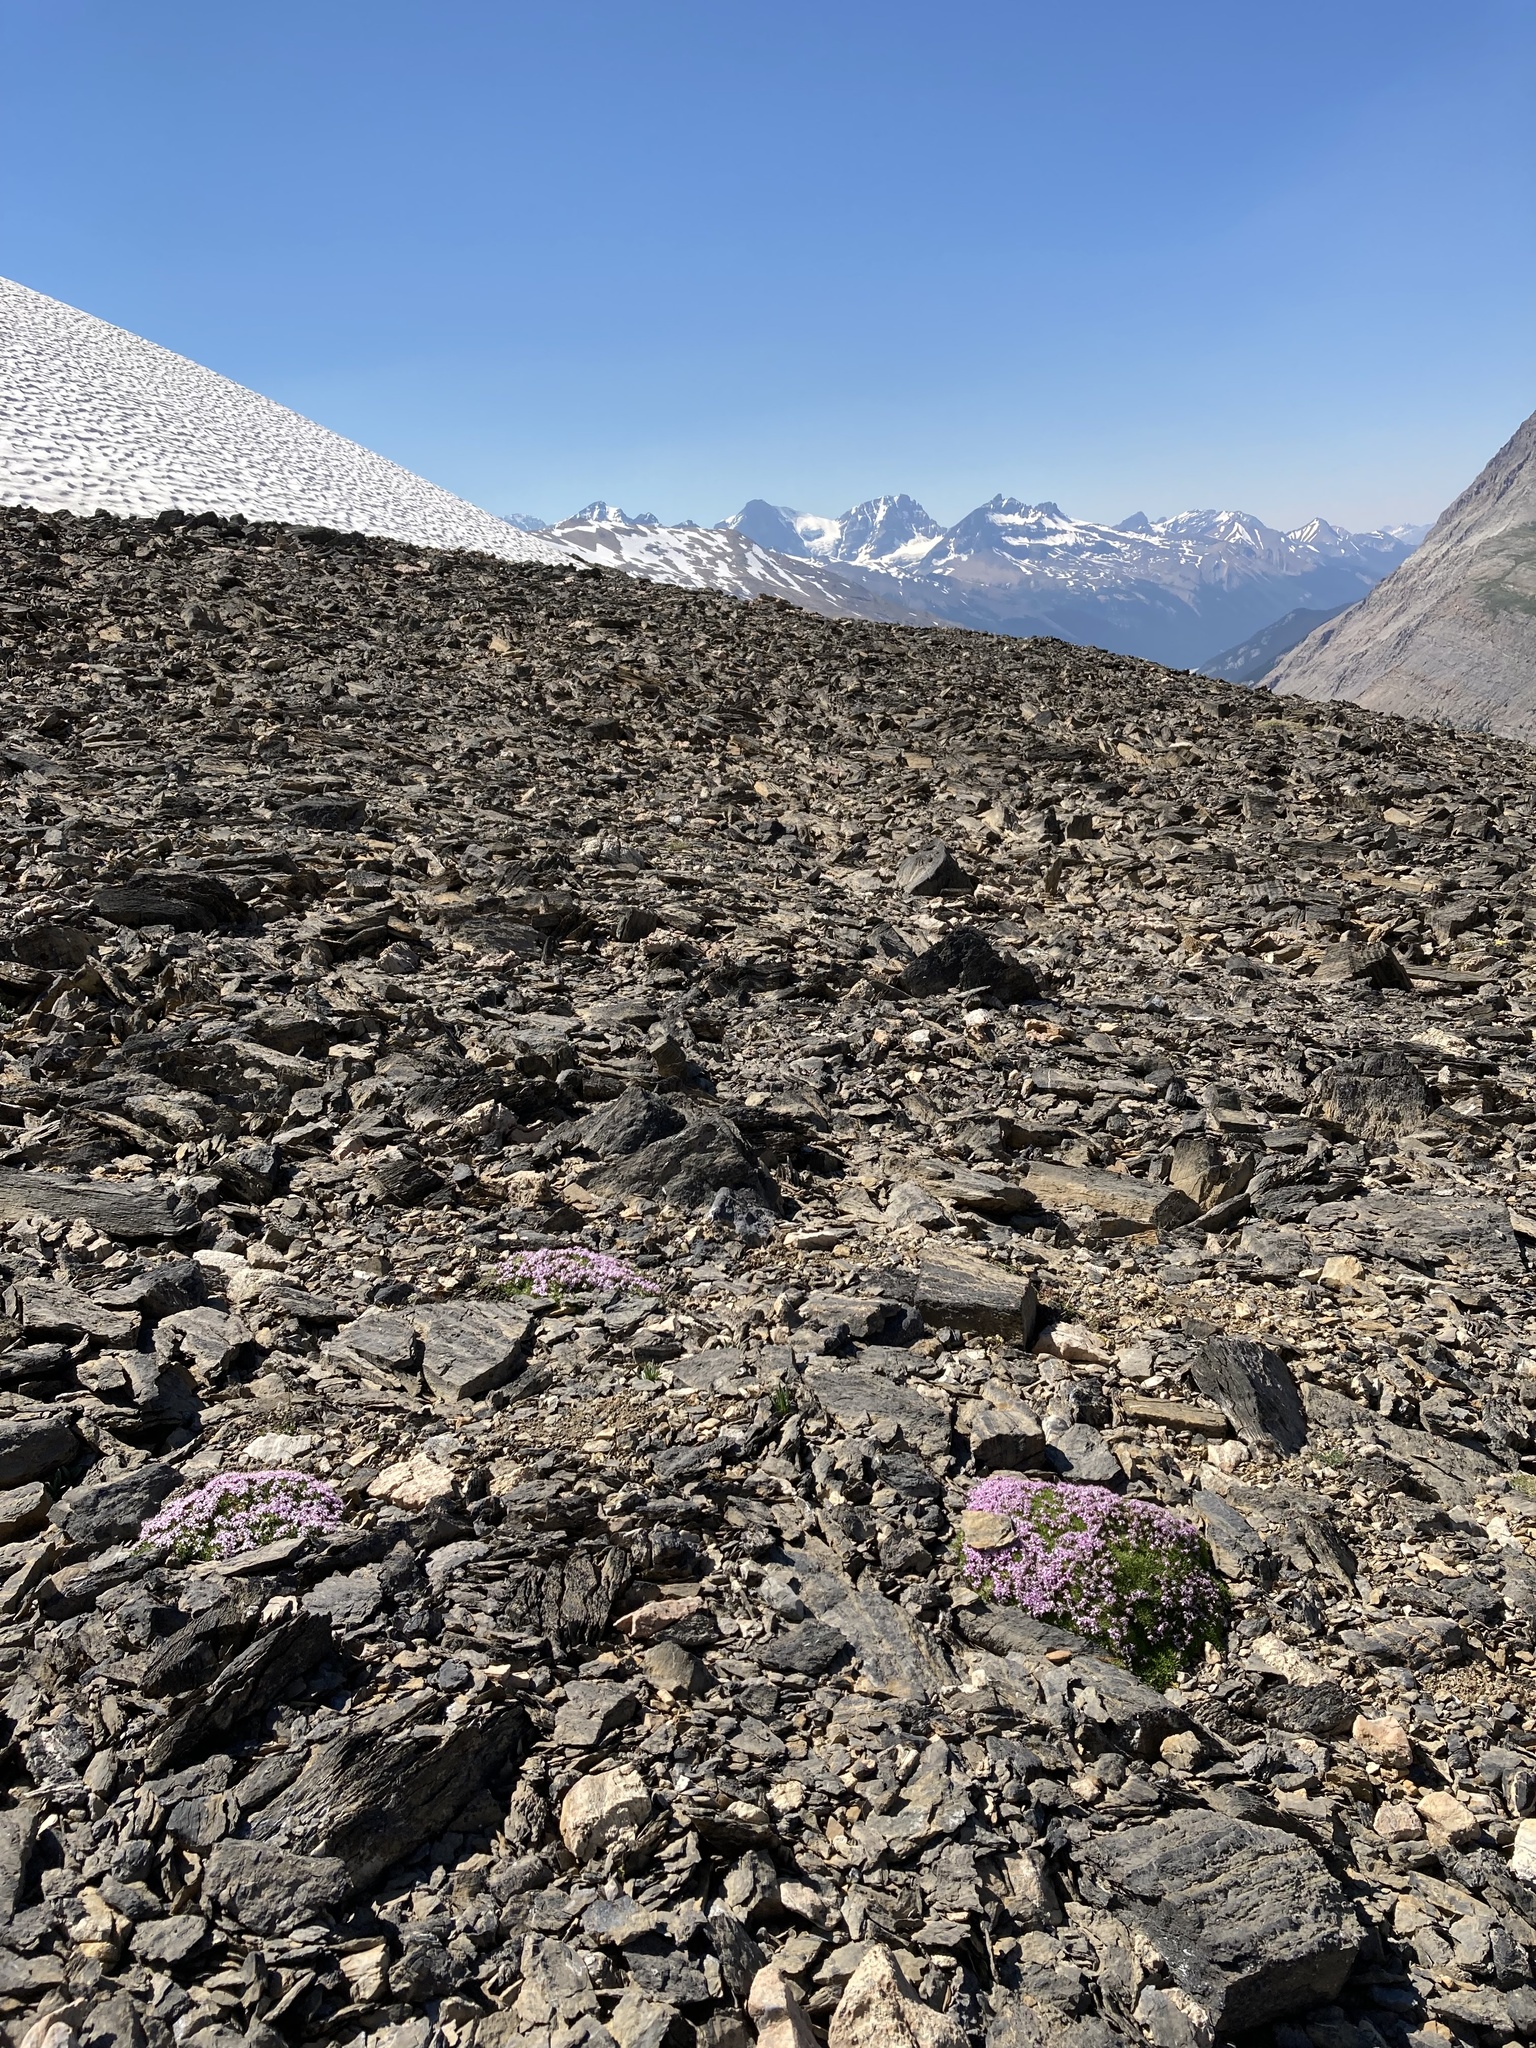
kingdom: Plantae
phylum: Tracheophyta
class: Magnoliopsida
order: Caryophyllales
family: Caryophyllaceae
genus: Silene
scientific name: Silene acaulis
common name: Moss campion
